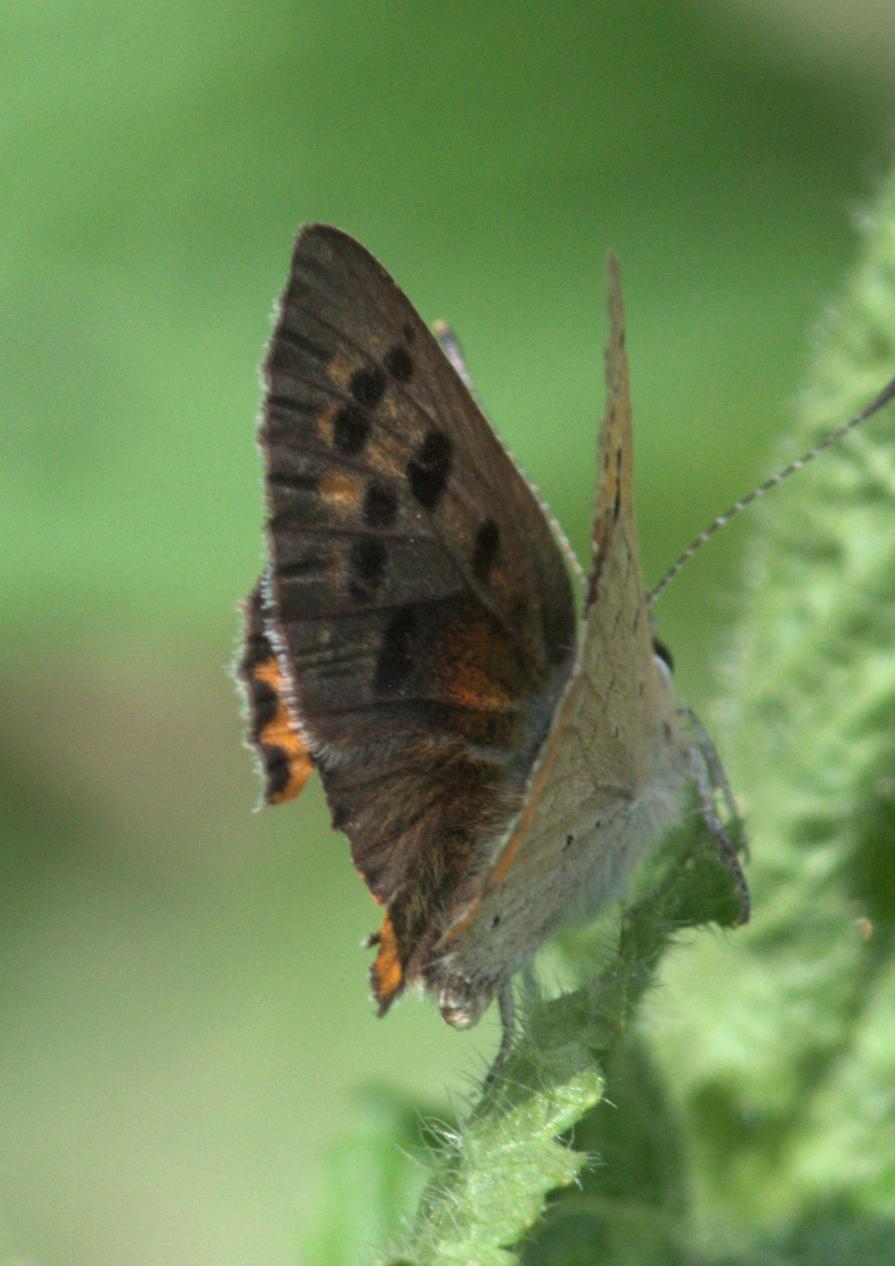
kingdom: Animalia
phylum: Arthropoda
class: Insecta
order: Lepidoptera
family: Lycaenidae
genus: Lycaena
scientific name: Lycaena phlaeas
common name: Small copper
